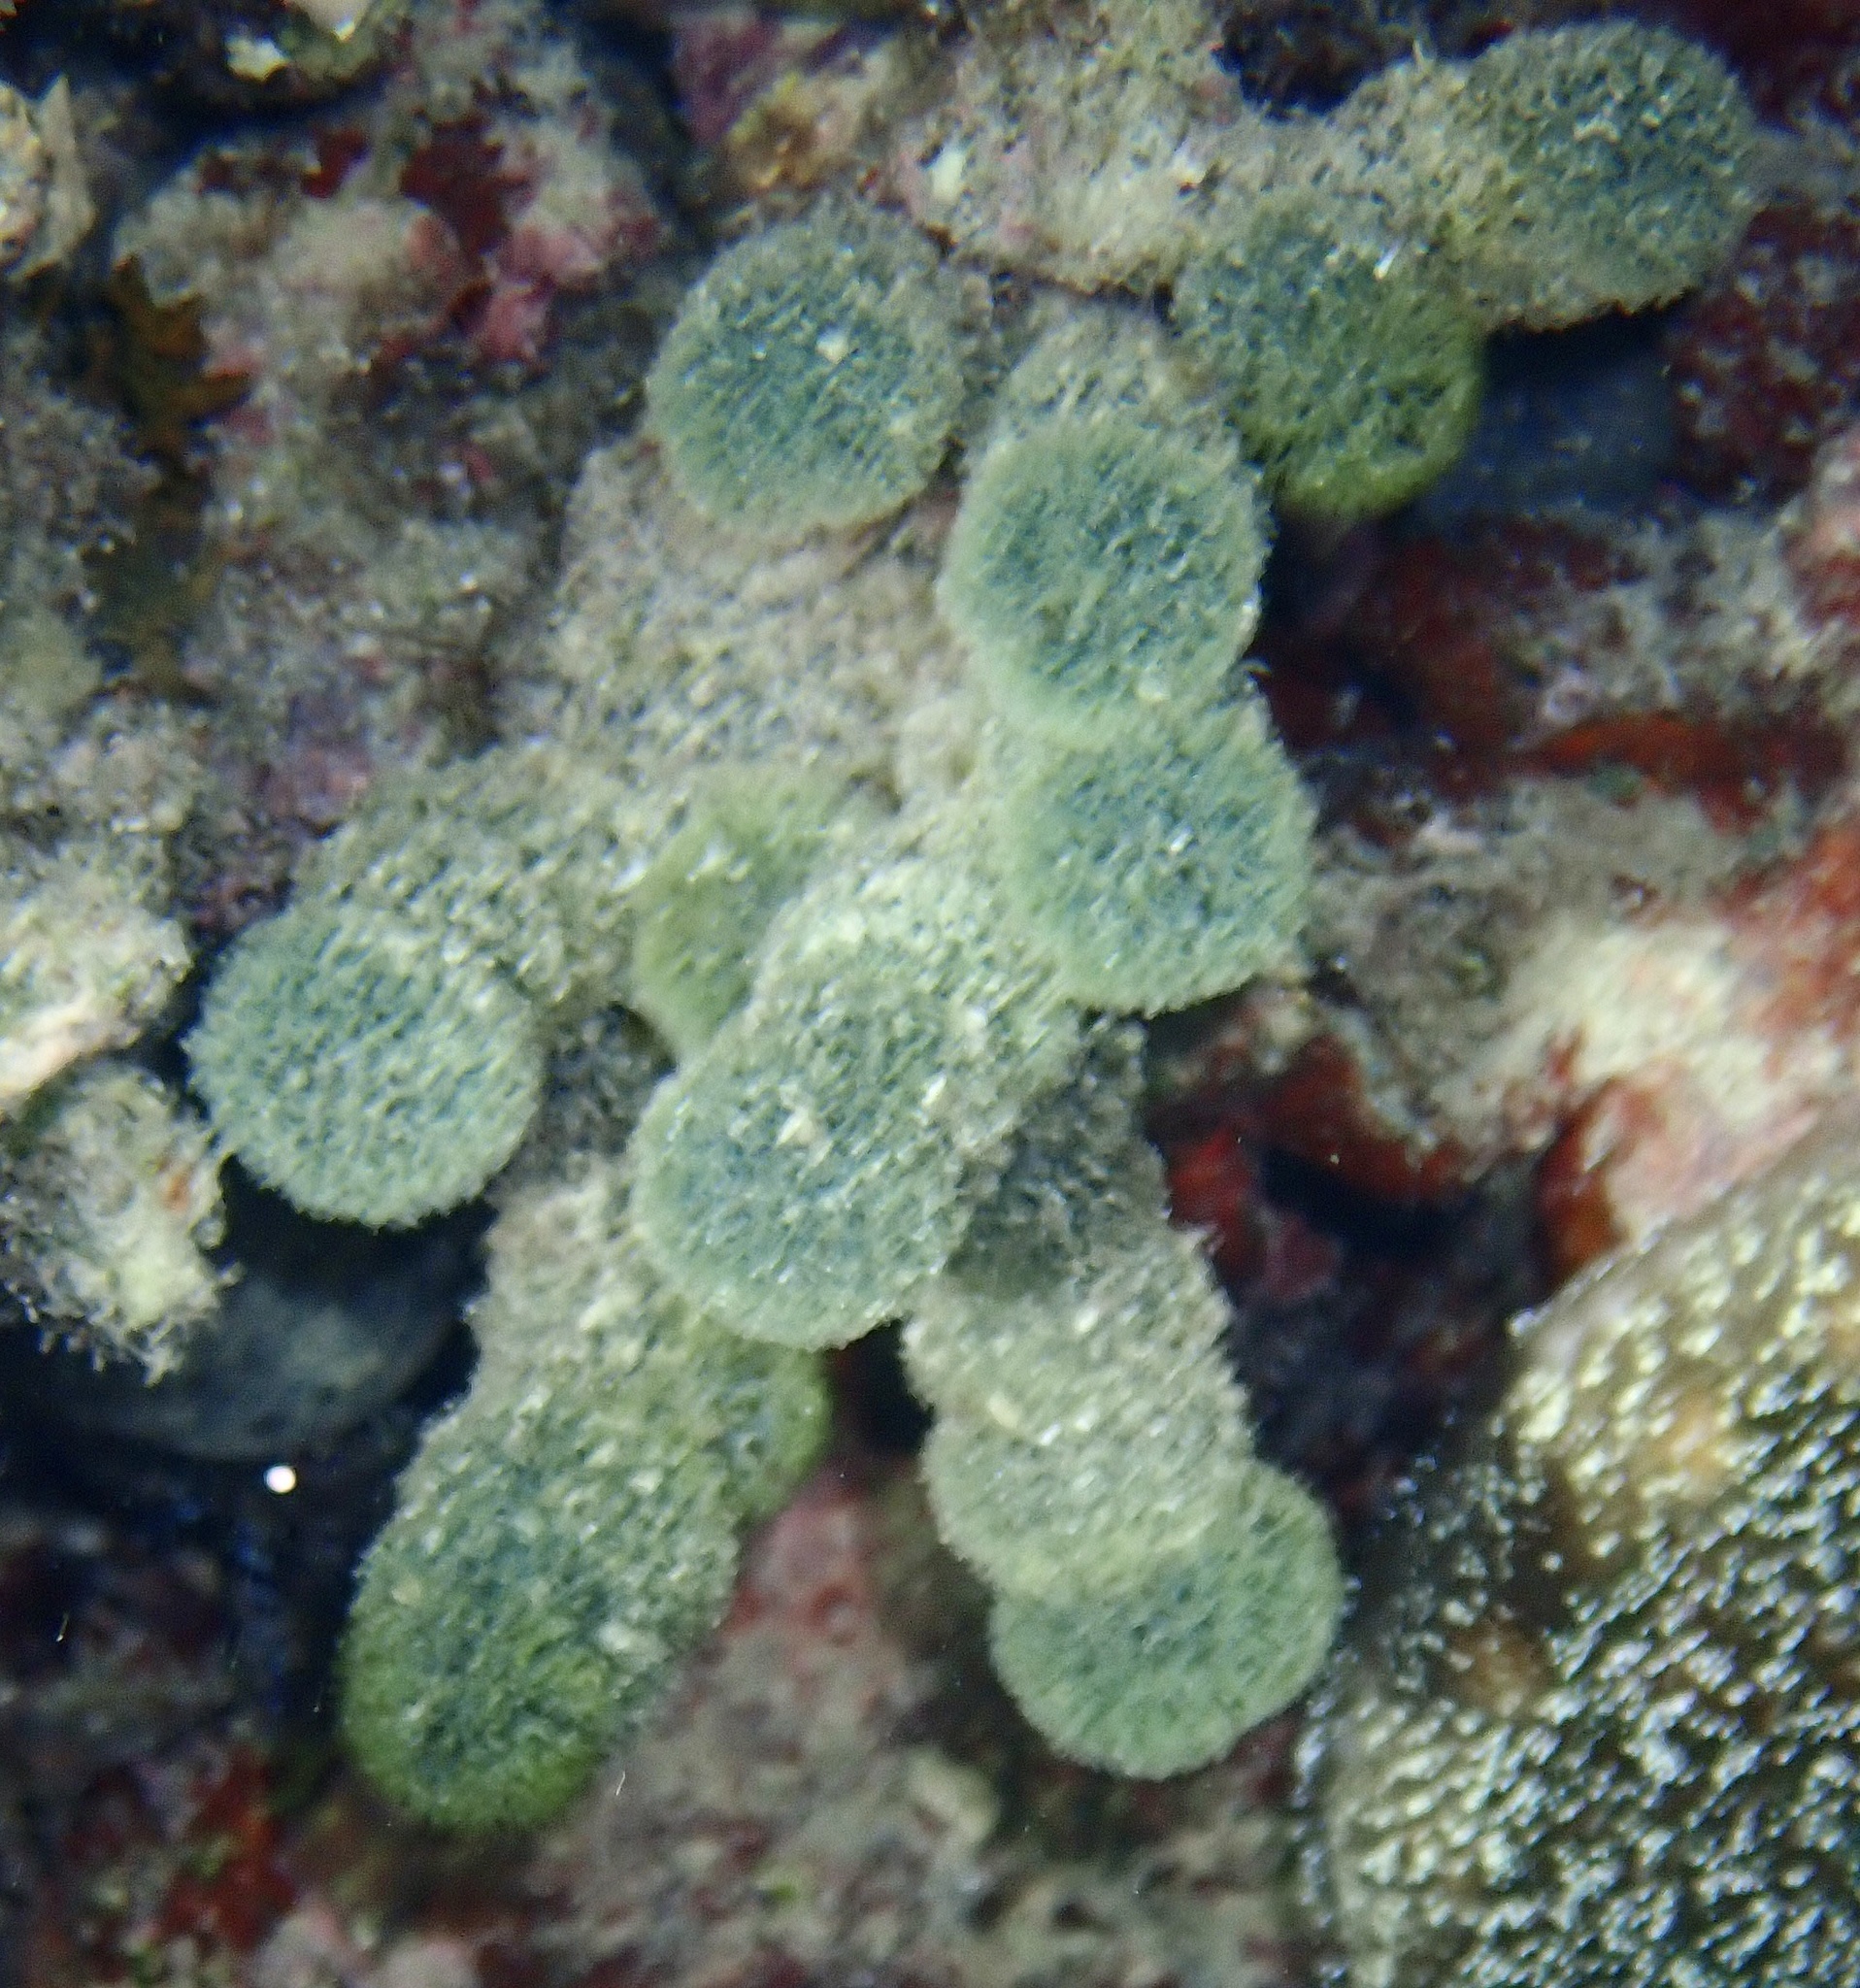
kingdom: Plantae
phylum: Chlorophyta
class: Ulvophyceae
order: Bryopsidales
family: Udoteaceae
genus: Tydemania
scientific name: Tydemania expeditionis
